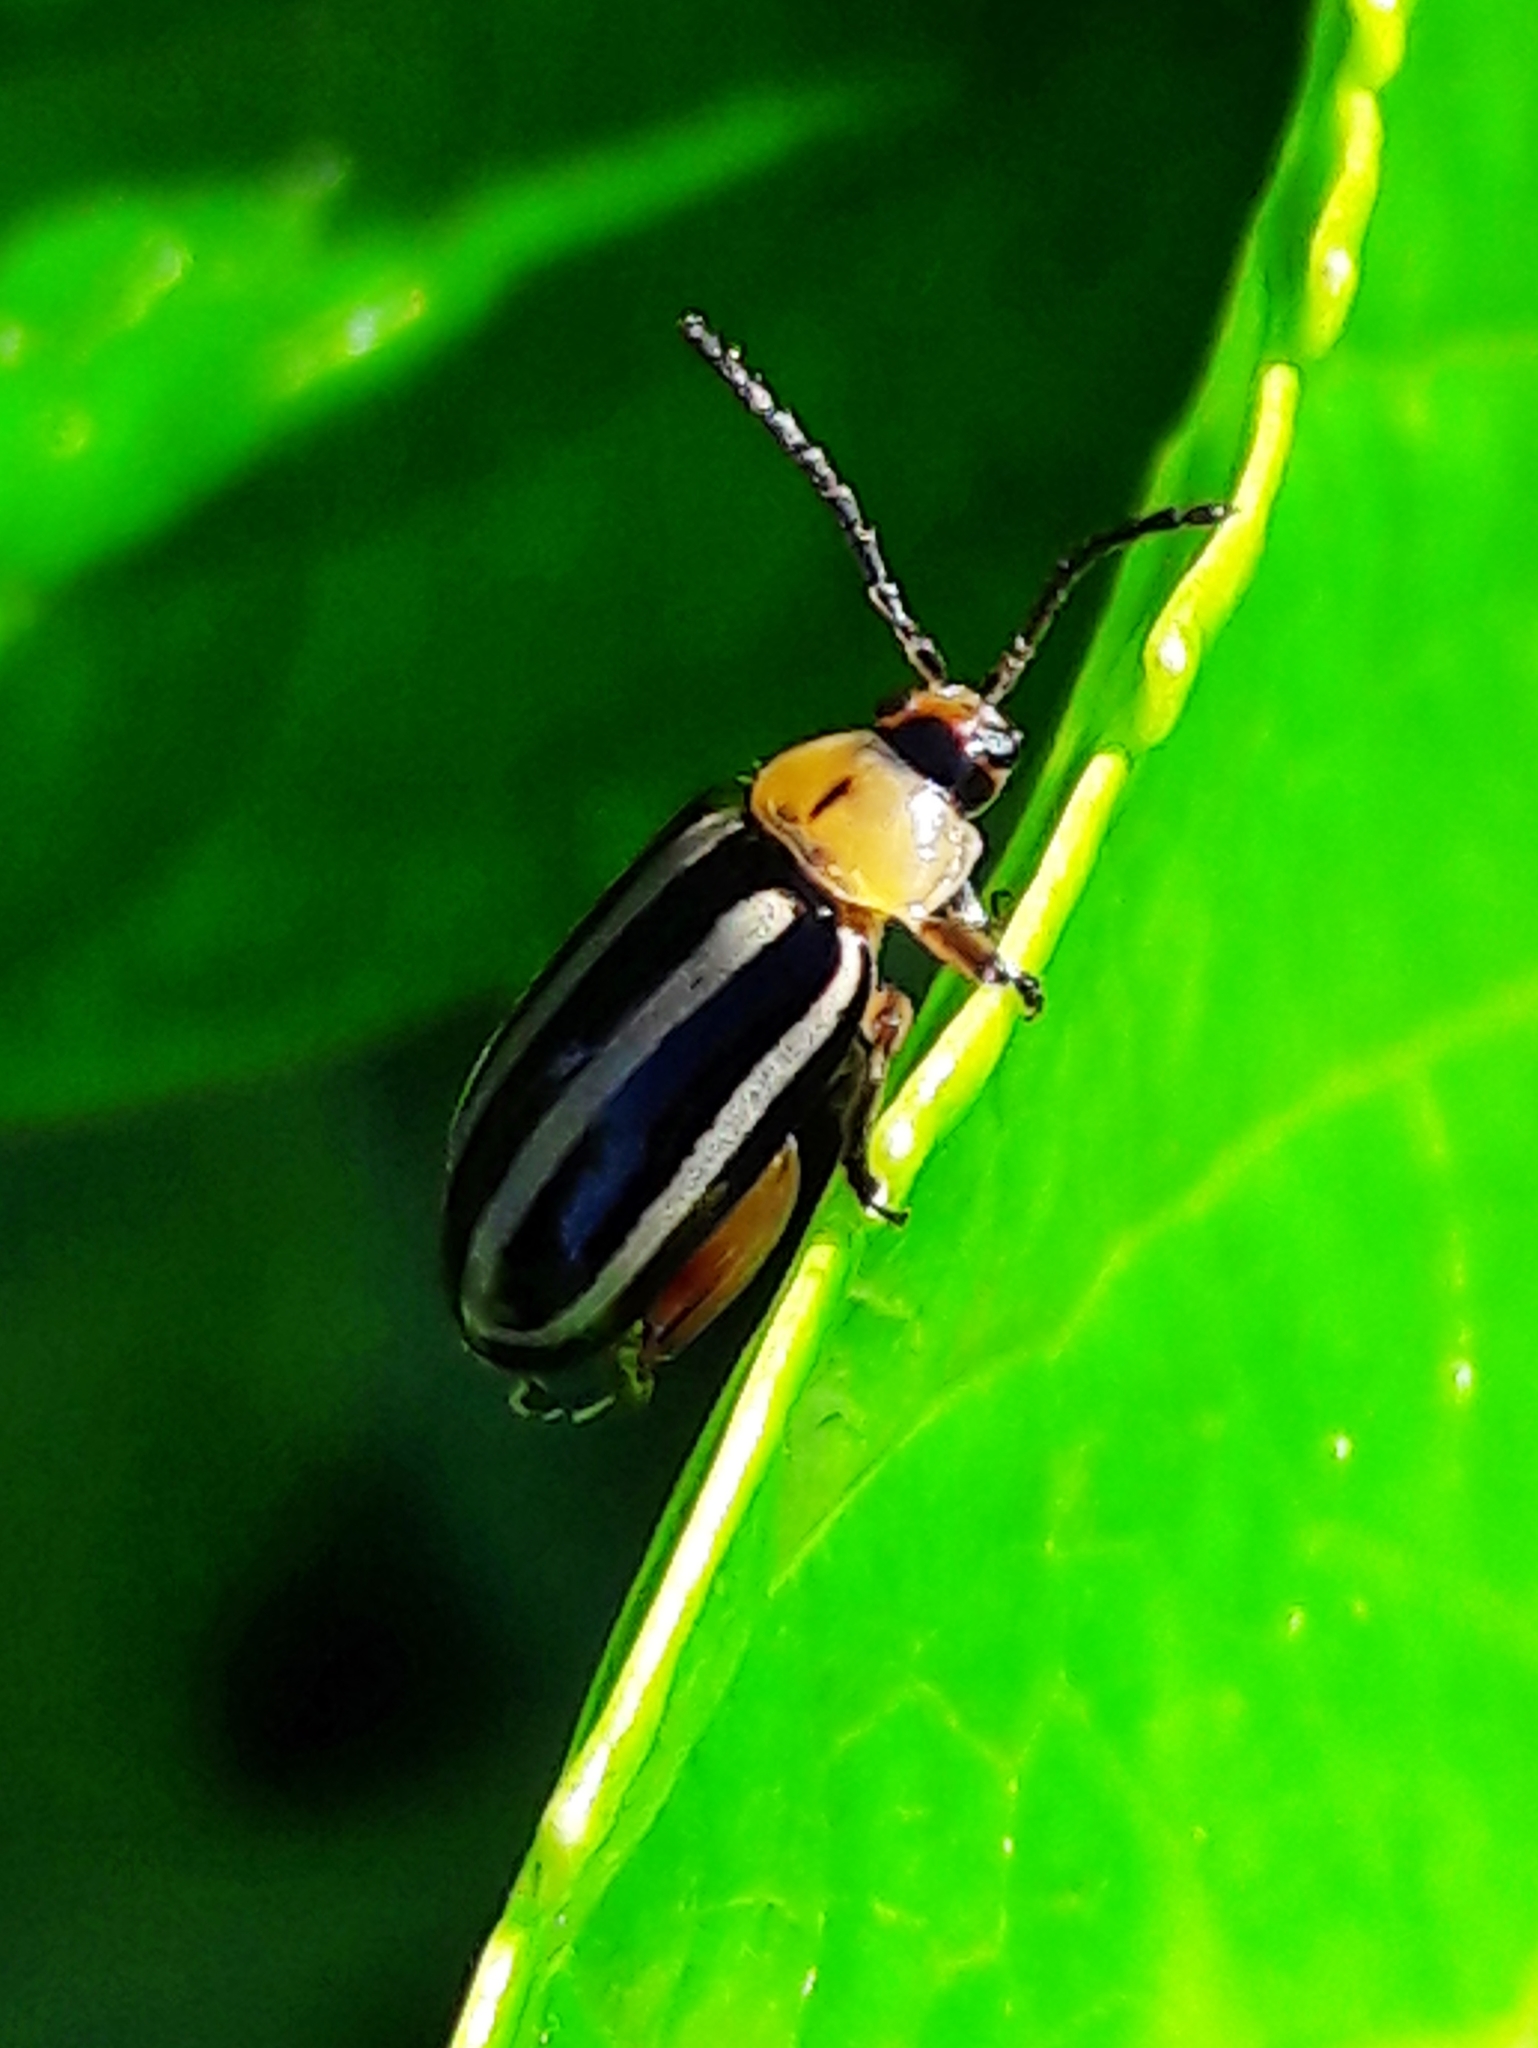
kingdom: Animalia
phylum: Arthropoda
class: Insecta
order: Coleoptera
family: Chrysomelidae
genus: Disonycha
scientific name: Disonycha glabrata
